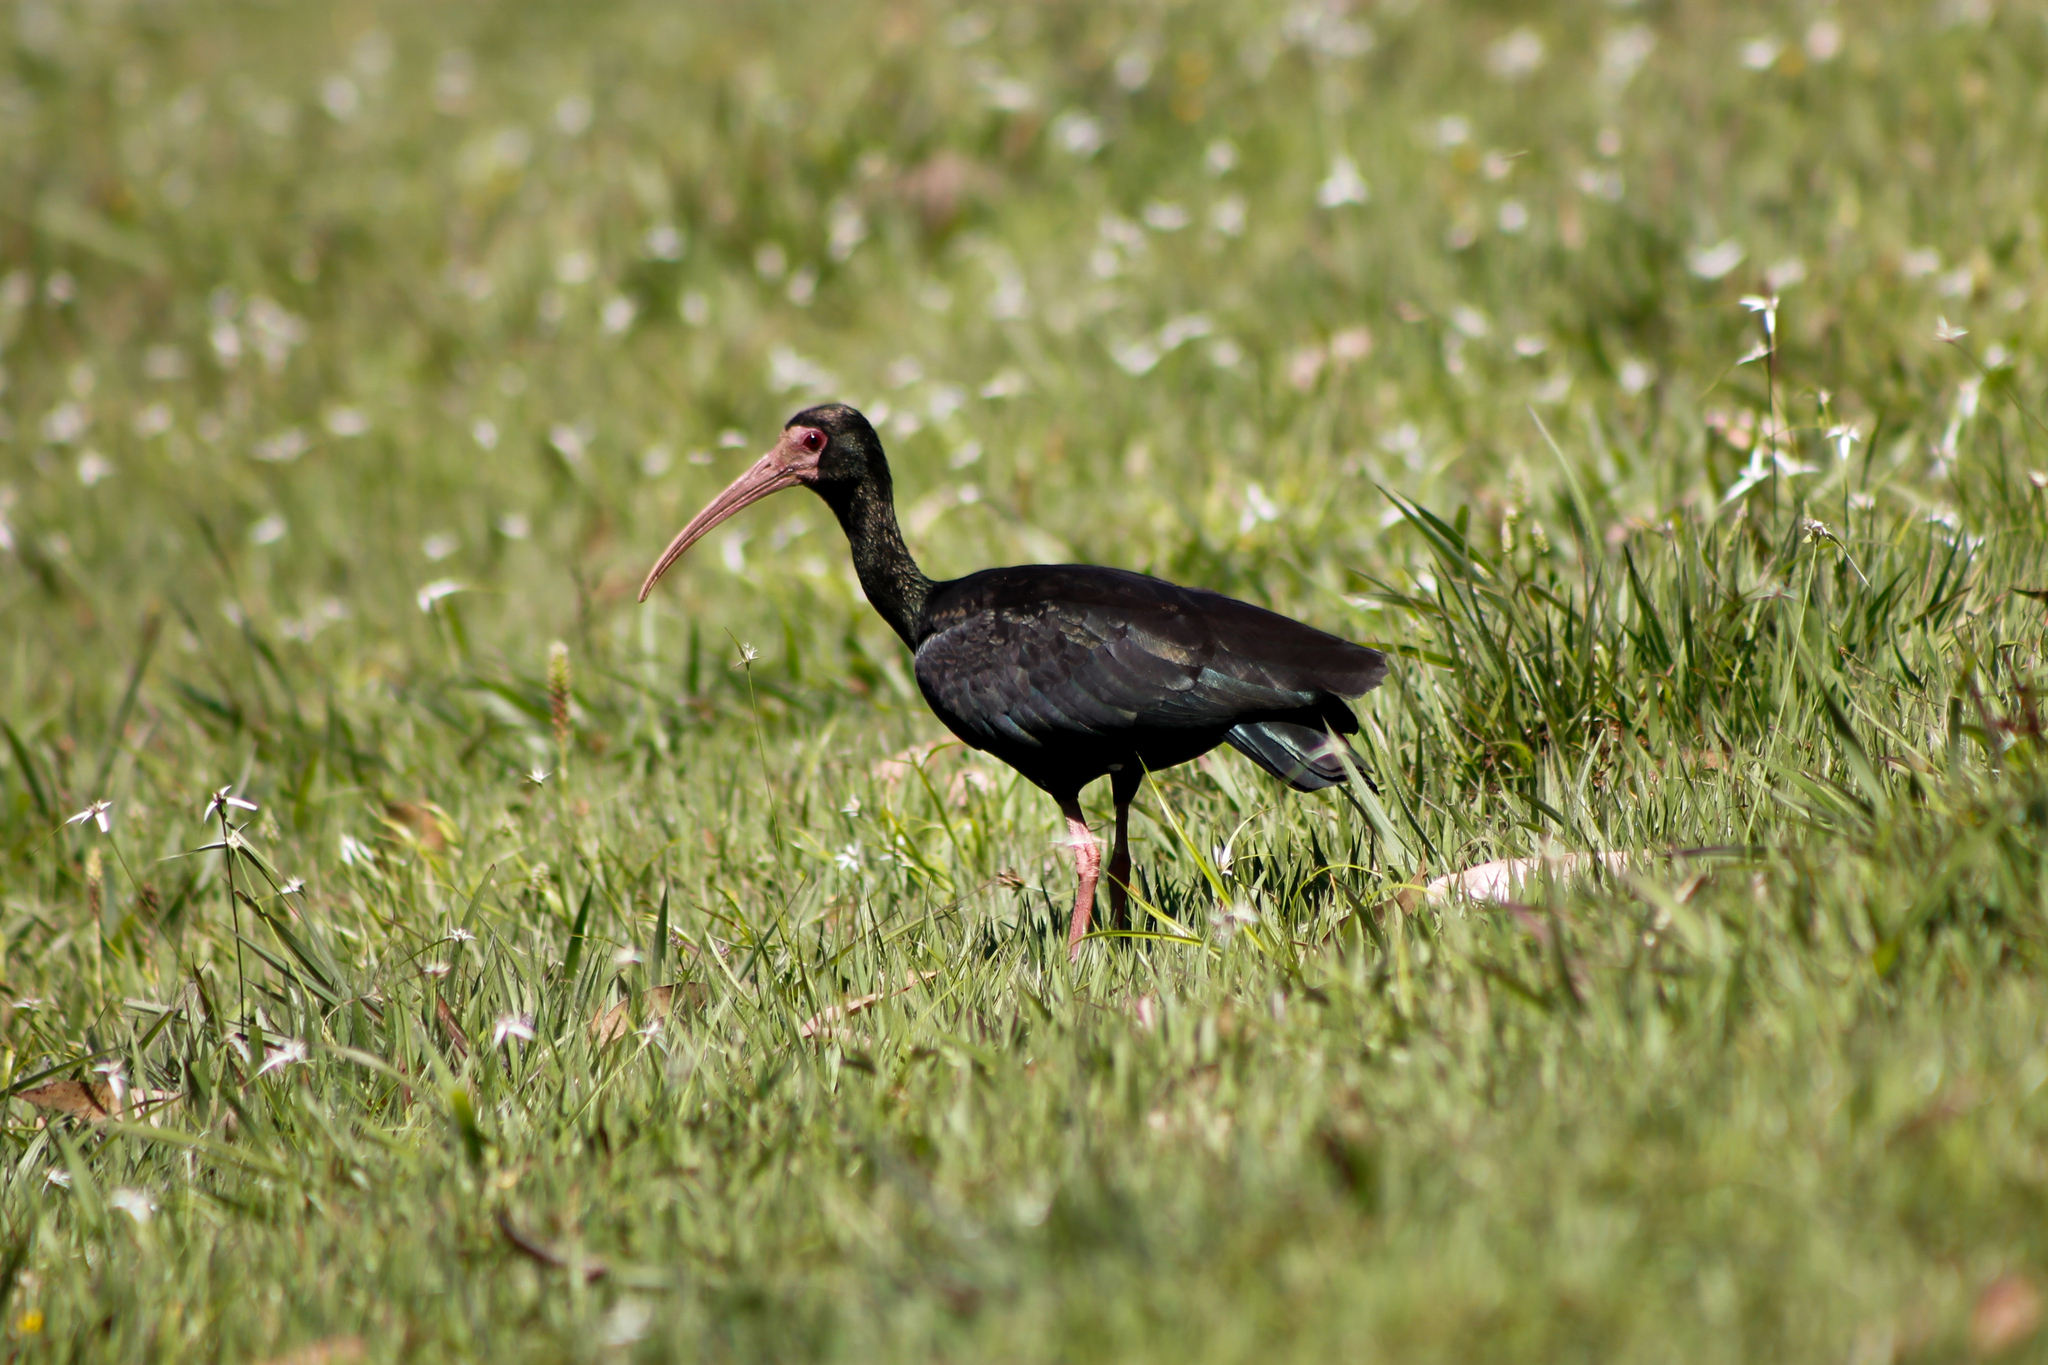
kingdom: Animalia
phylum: Chordata
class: Aves
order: Pelecaniformes
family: Threskiornithidae
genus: Phimosus
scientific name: Phimosus infuscatus
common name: Bare-faced ibis
